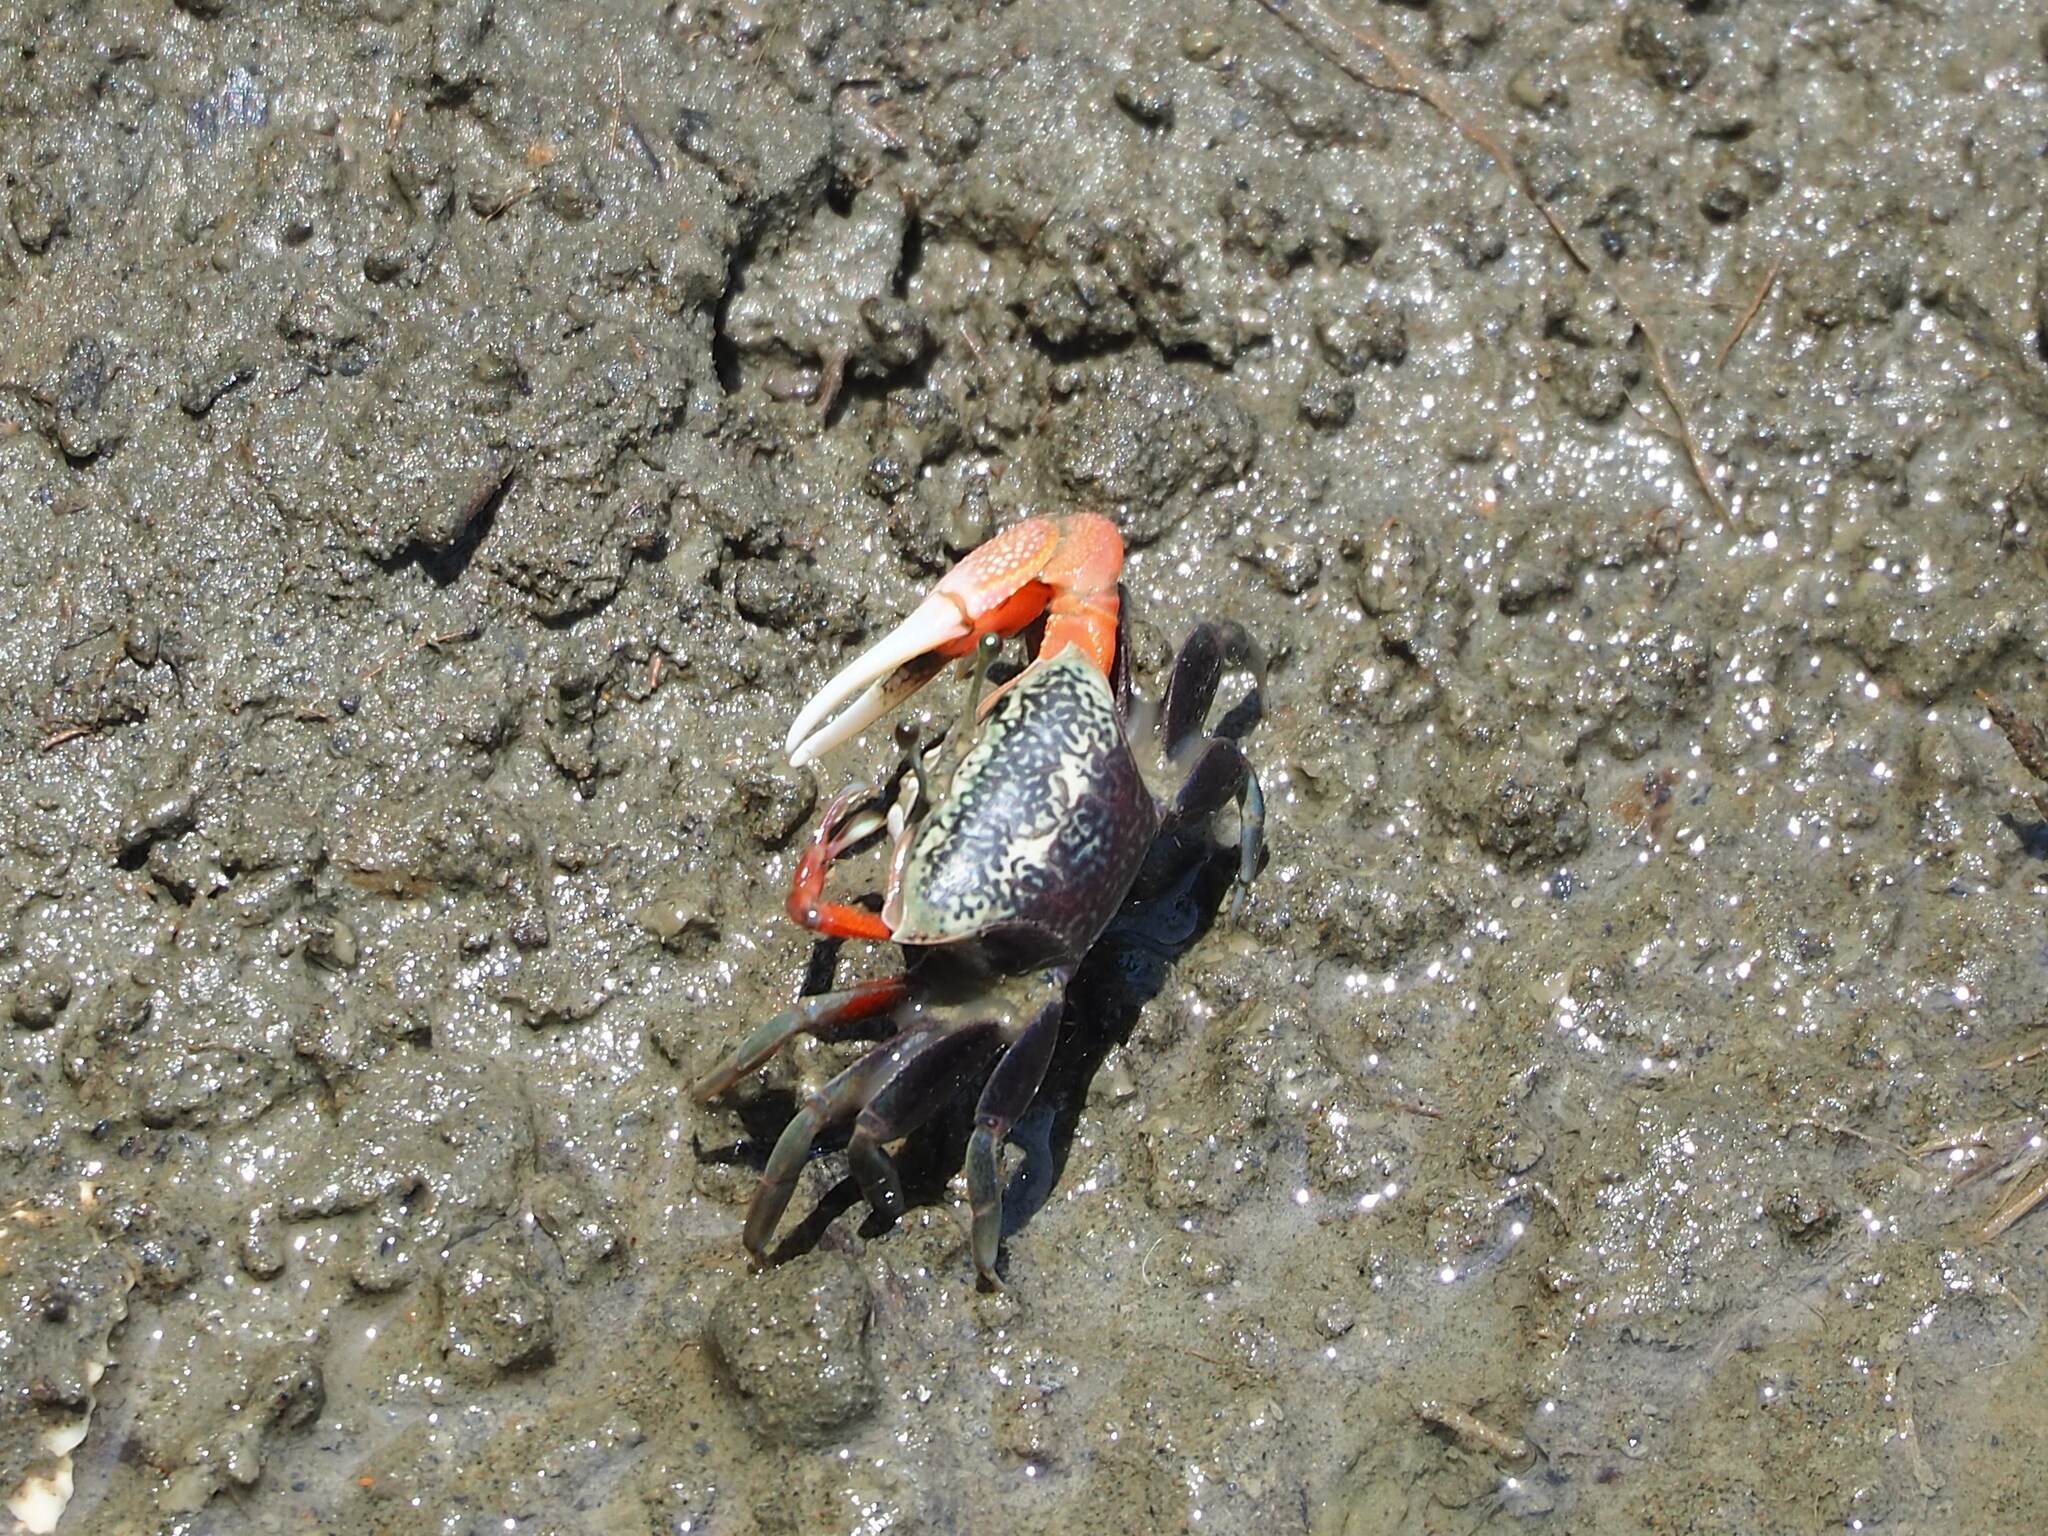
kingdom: Animalia
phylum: Arthropoda
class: Malacostraca
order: Decapoda
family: Ocypodidae
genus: Tubuca
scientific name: Tubuca arcuata
